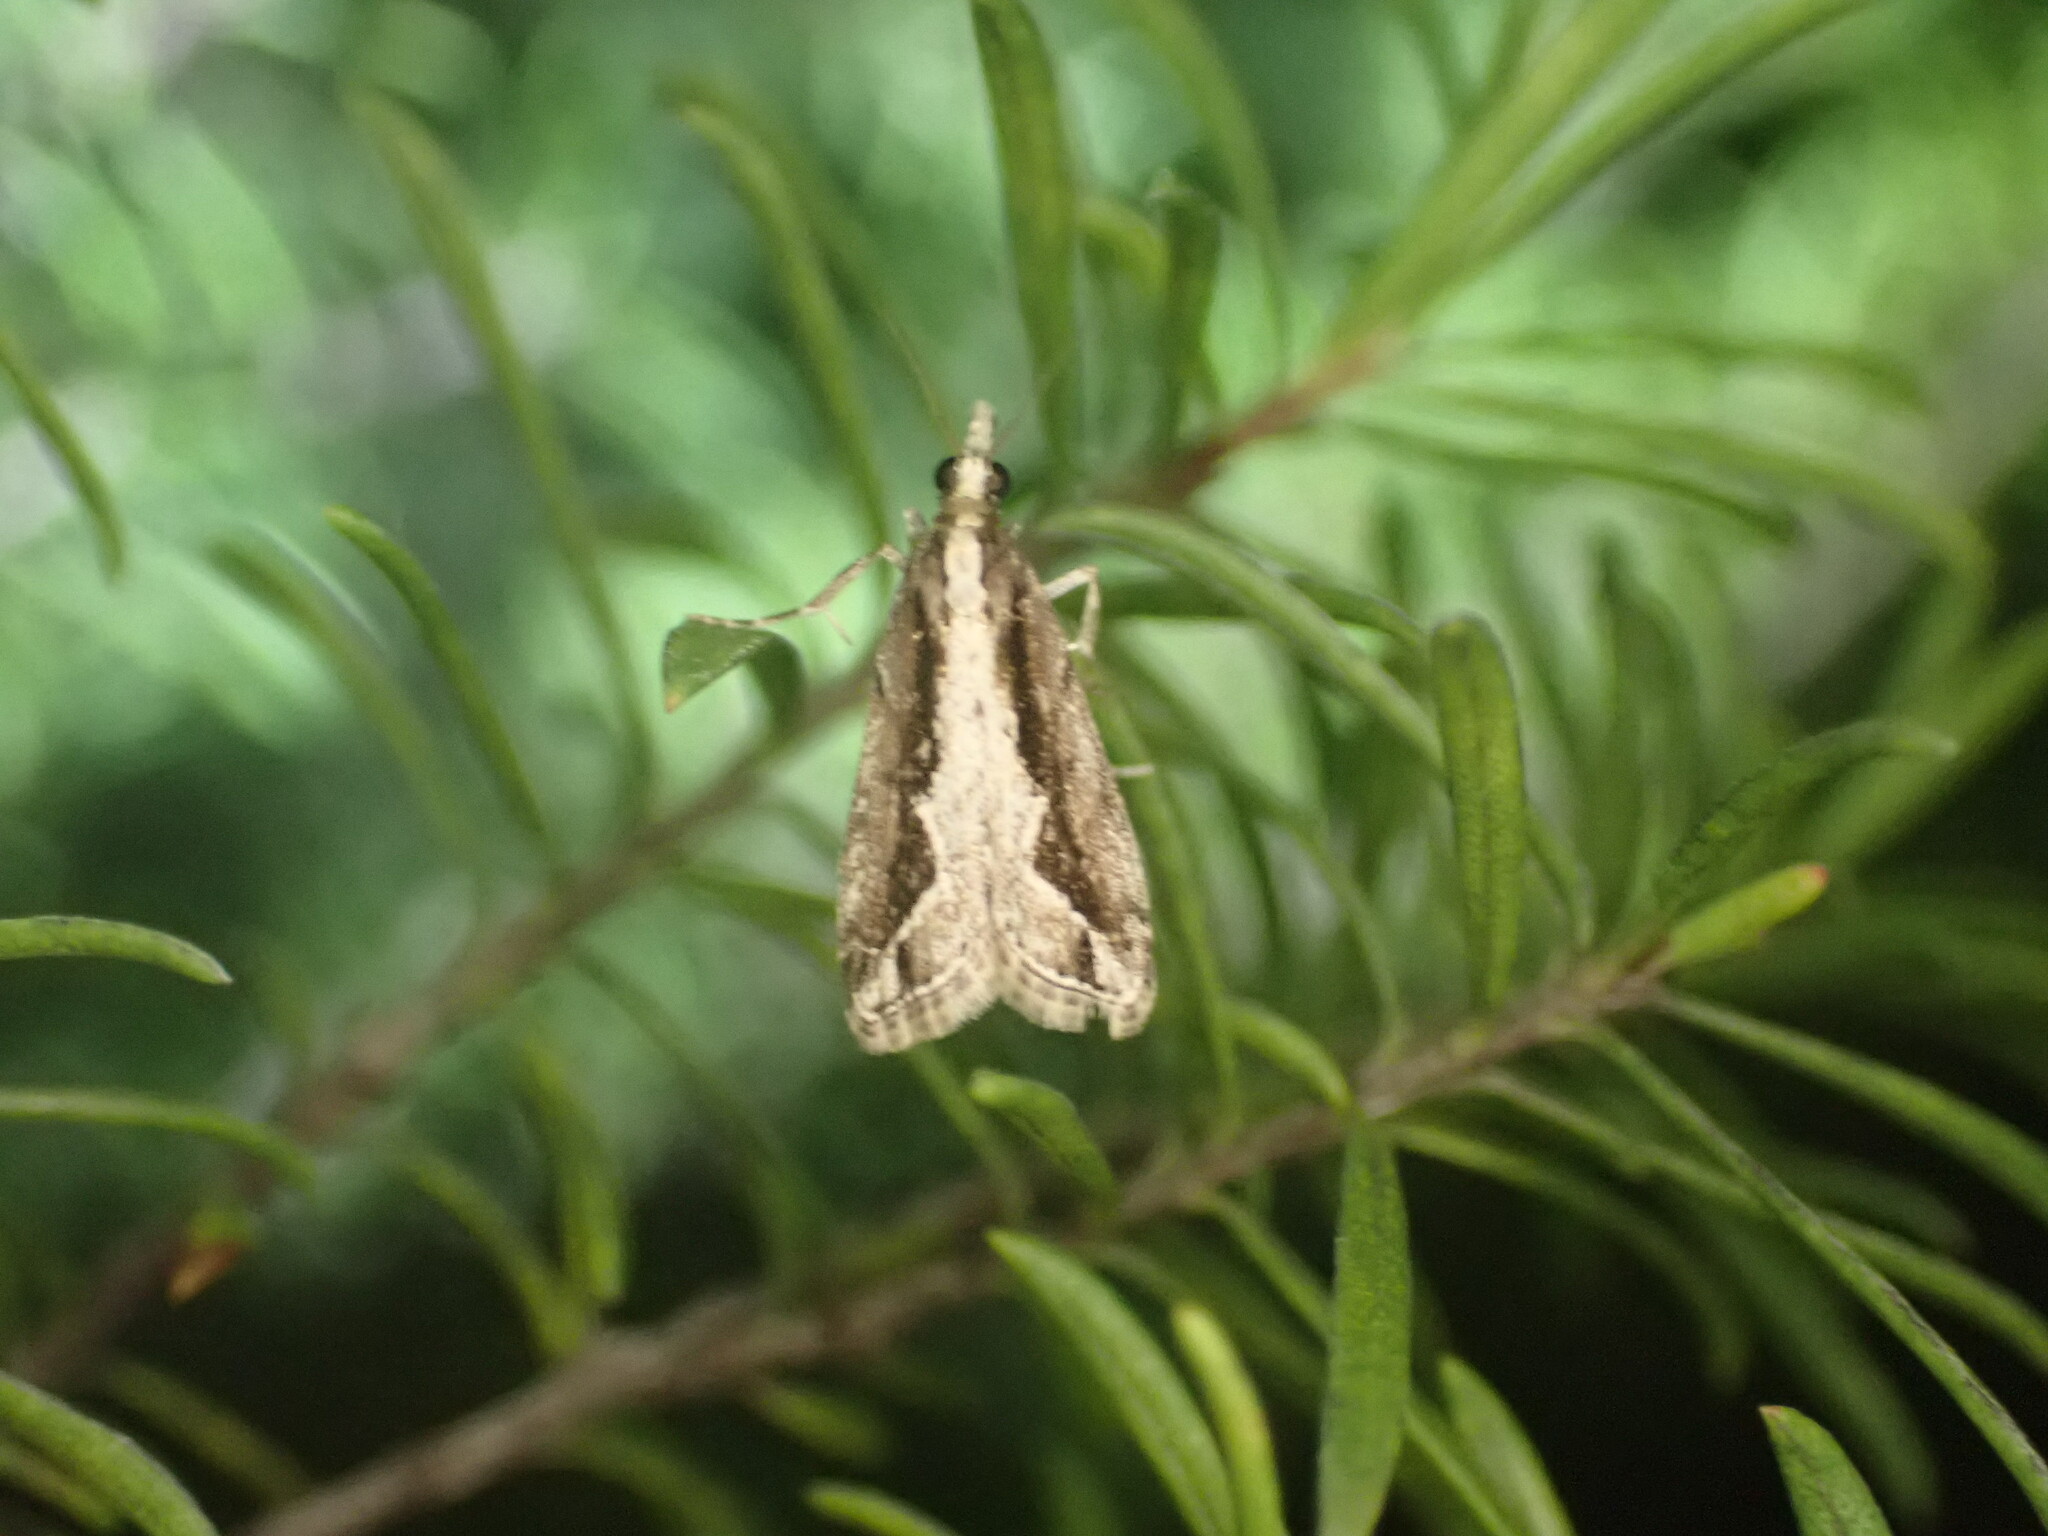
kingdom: Animalia
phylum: Arthropoda
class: Insecta
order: Lepidoptera
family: Crambidae
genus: Eudonia
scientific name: Eudonia steropaea
